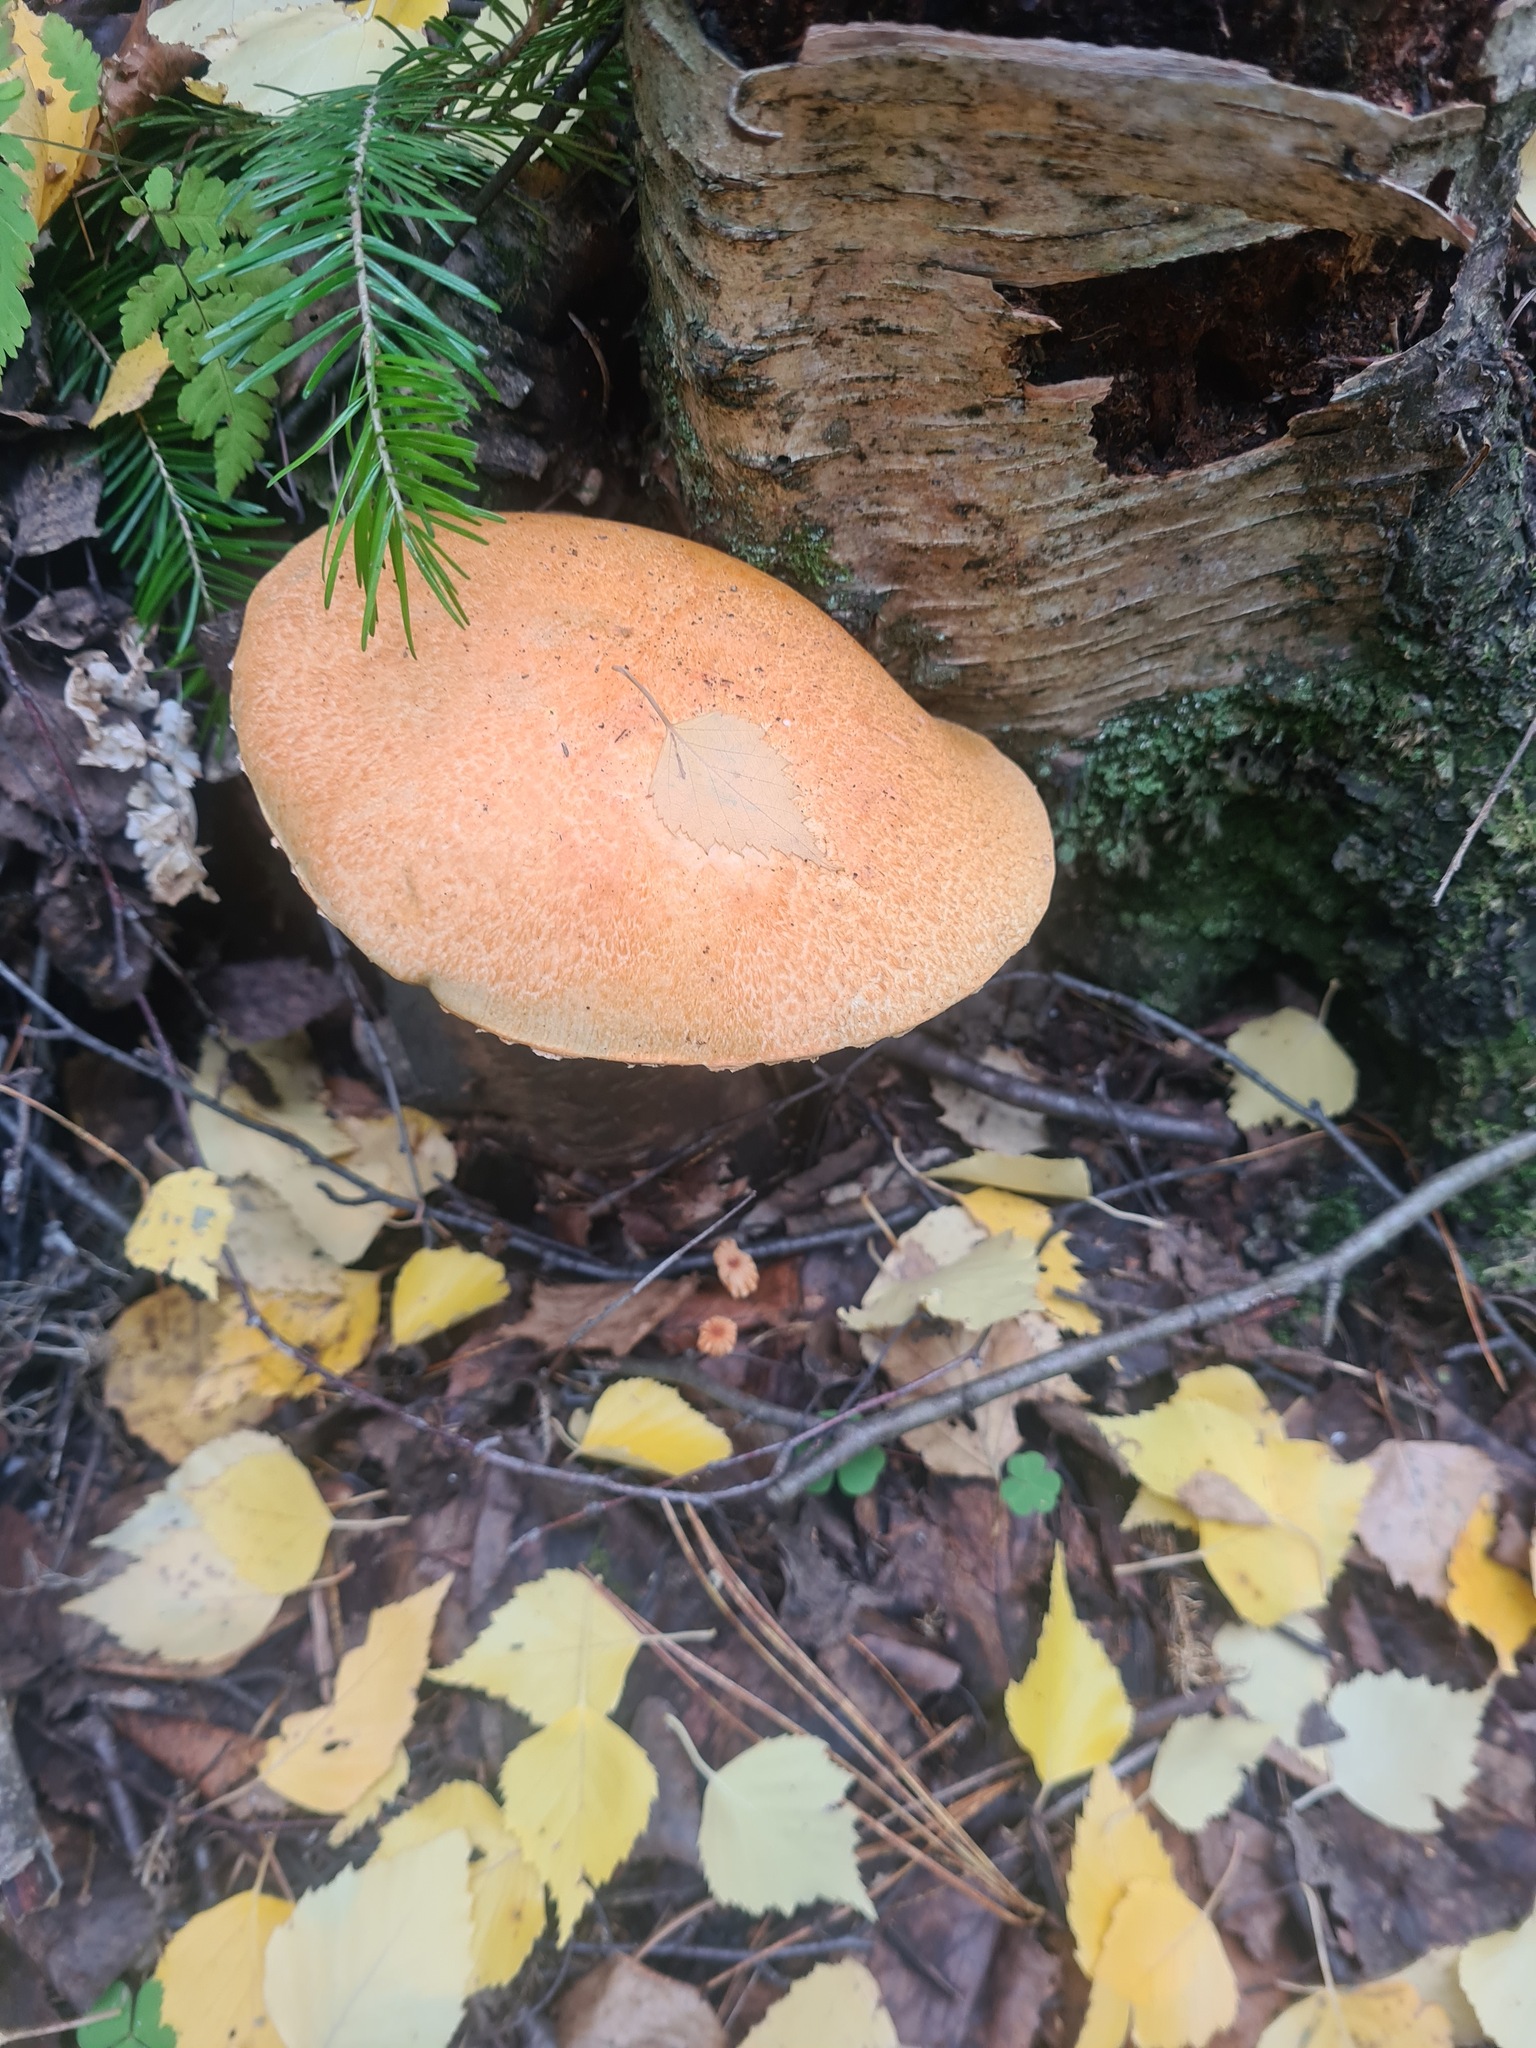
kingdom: Fungi
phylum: Basidiomycota
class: Agaricomycetes
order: Boletales
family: Boletaceae
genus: Leccinum
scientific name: Leccinum versipelle
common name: Orange birch bolete
